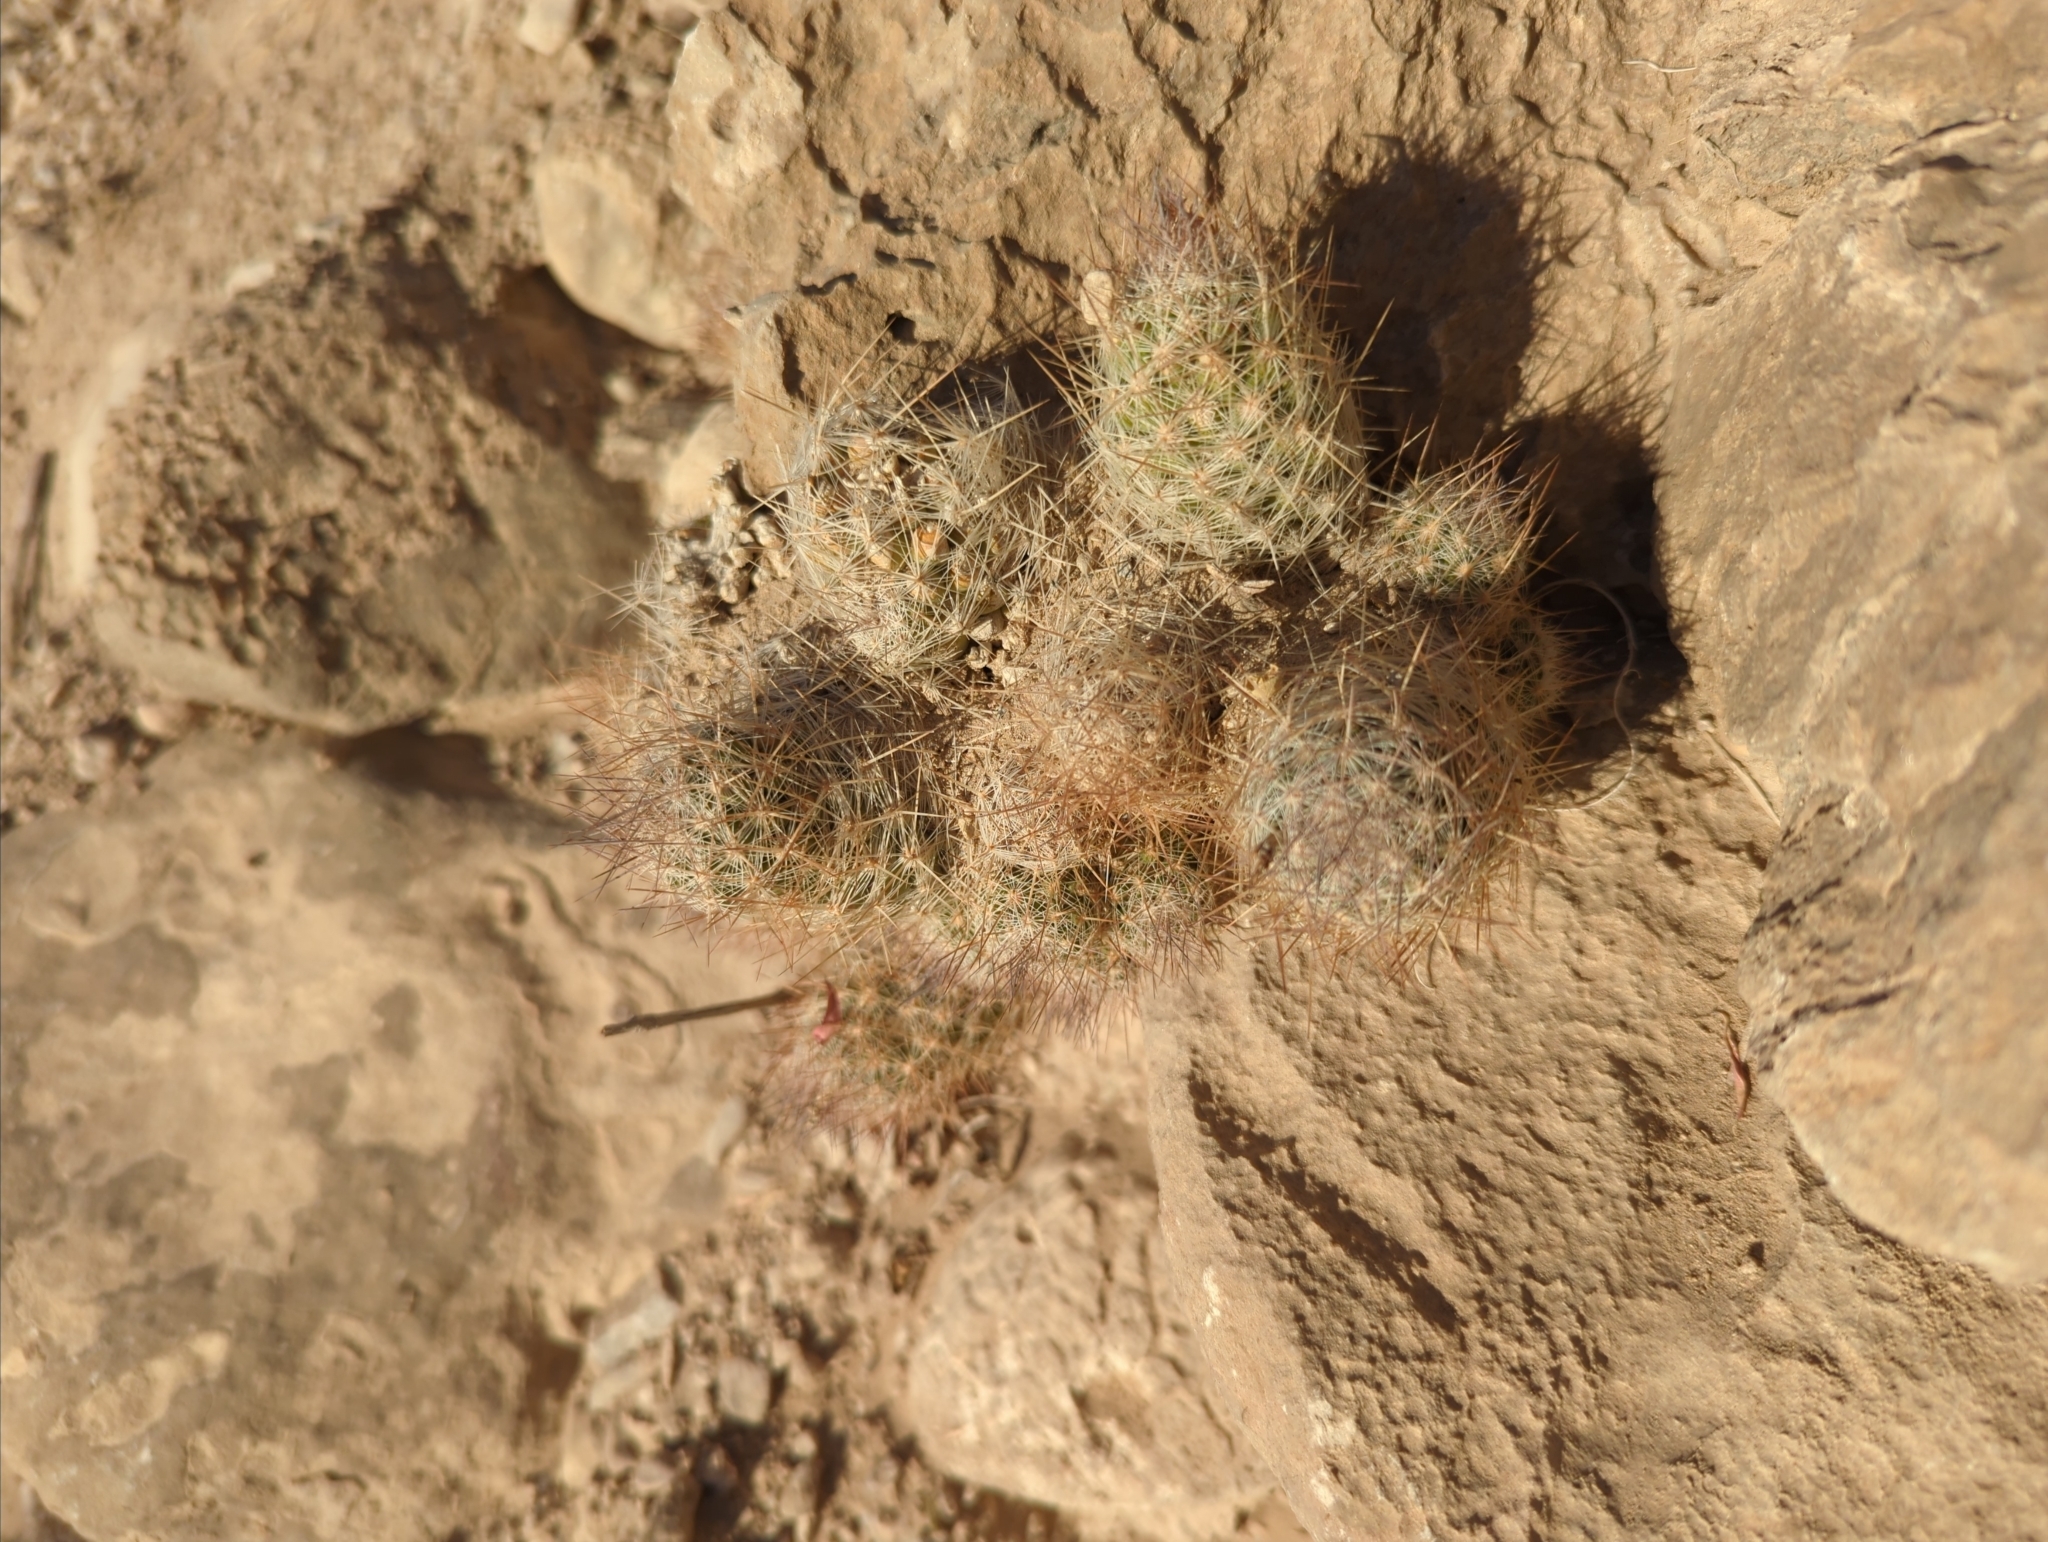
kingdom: Plantae
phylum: Tracheophyta
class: Magnoliopsida
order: Caryophyllales
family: Cactaceae
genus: Pelecyphora
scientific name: Pelecyphora tuberculosa
